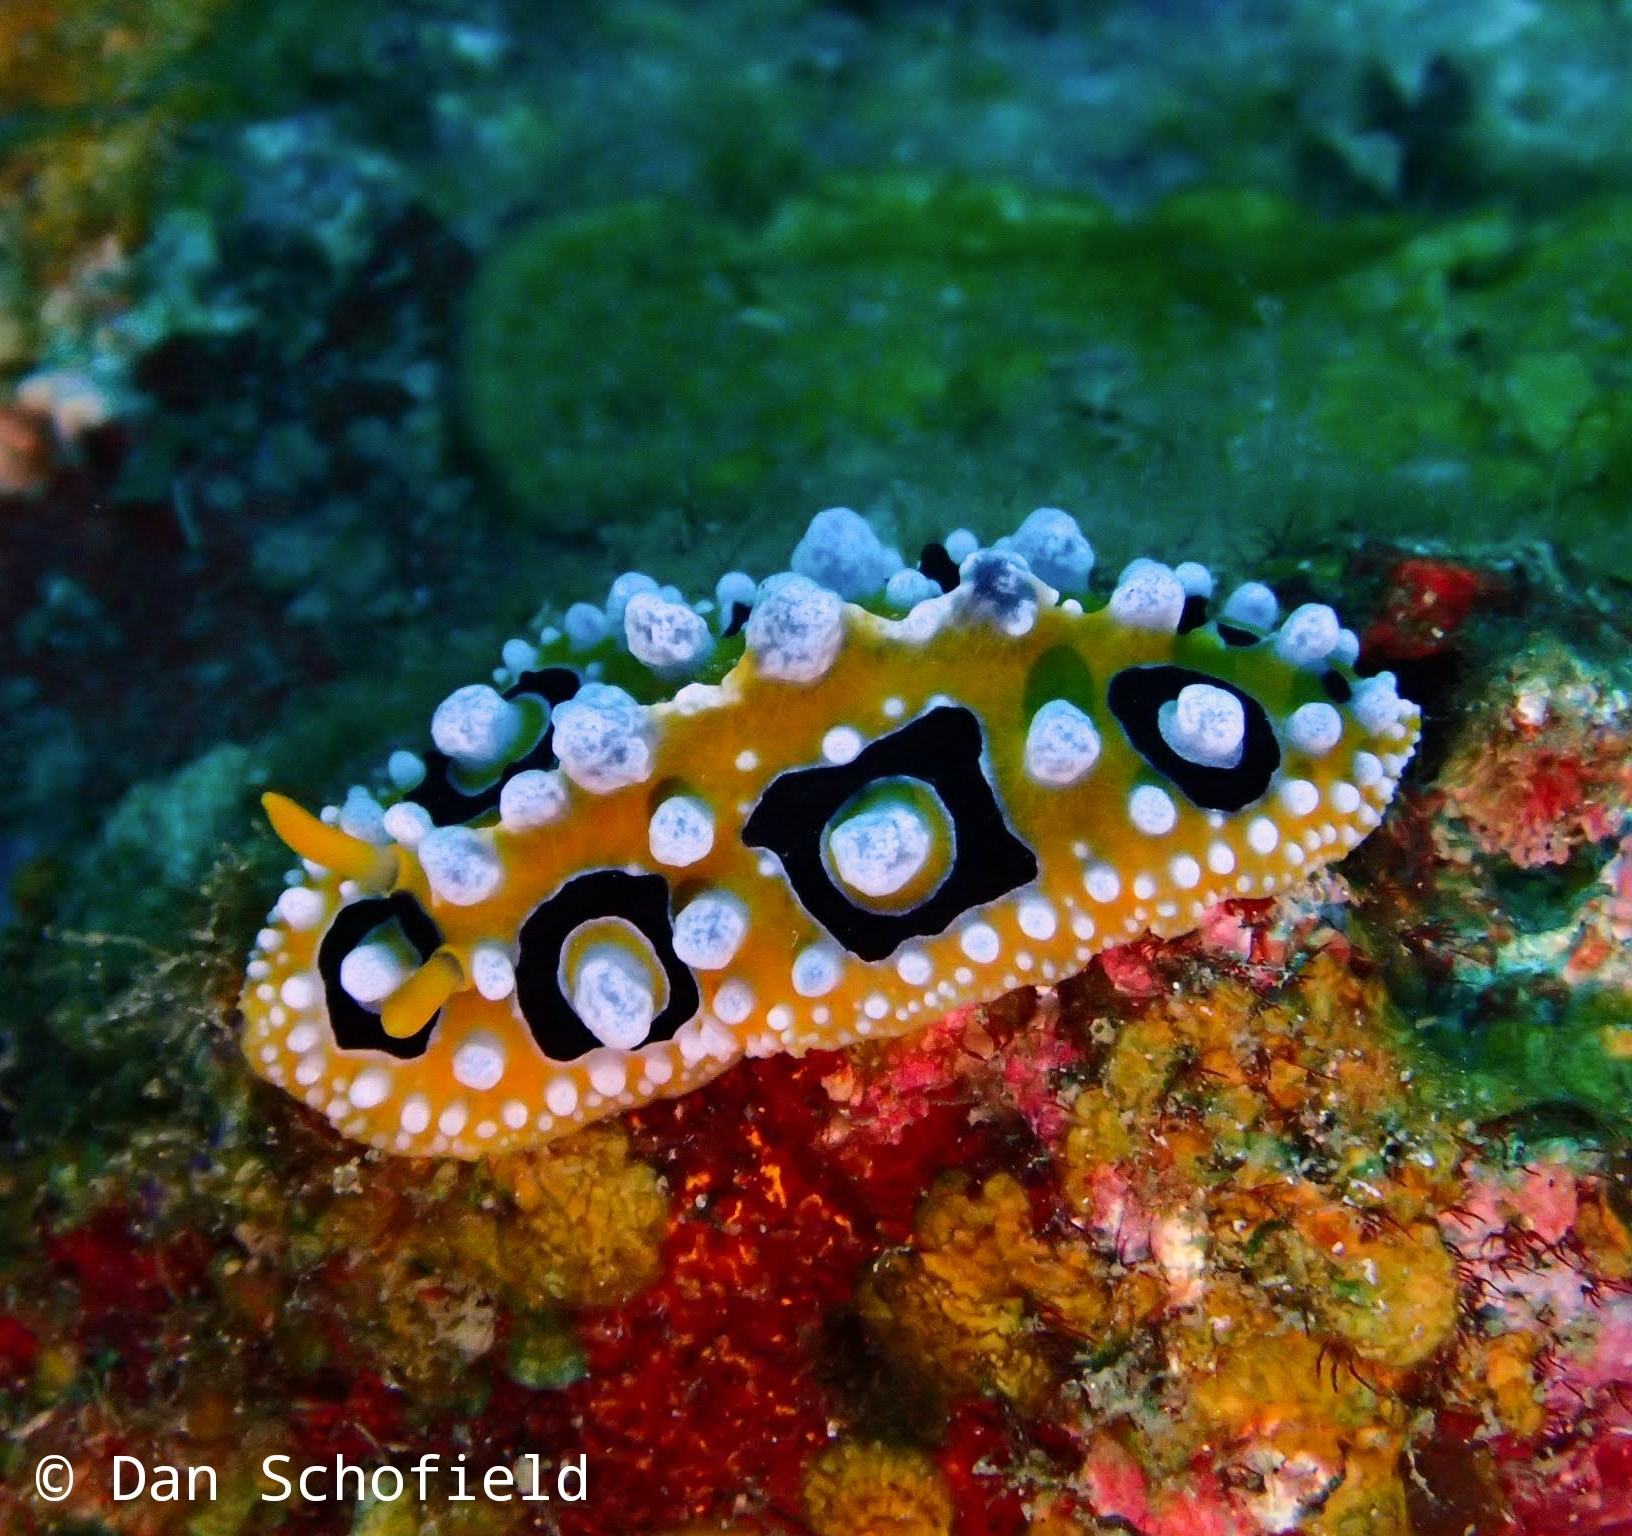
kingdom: Animalia
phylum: Mollusca
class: Gastropoda
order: Nudibranchia
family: Phyllidiidae
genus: Phyllidia
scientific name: Phyllidia ocellata
